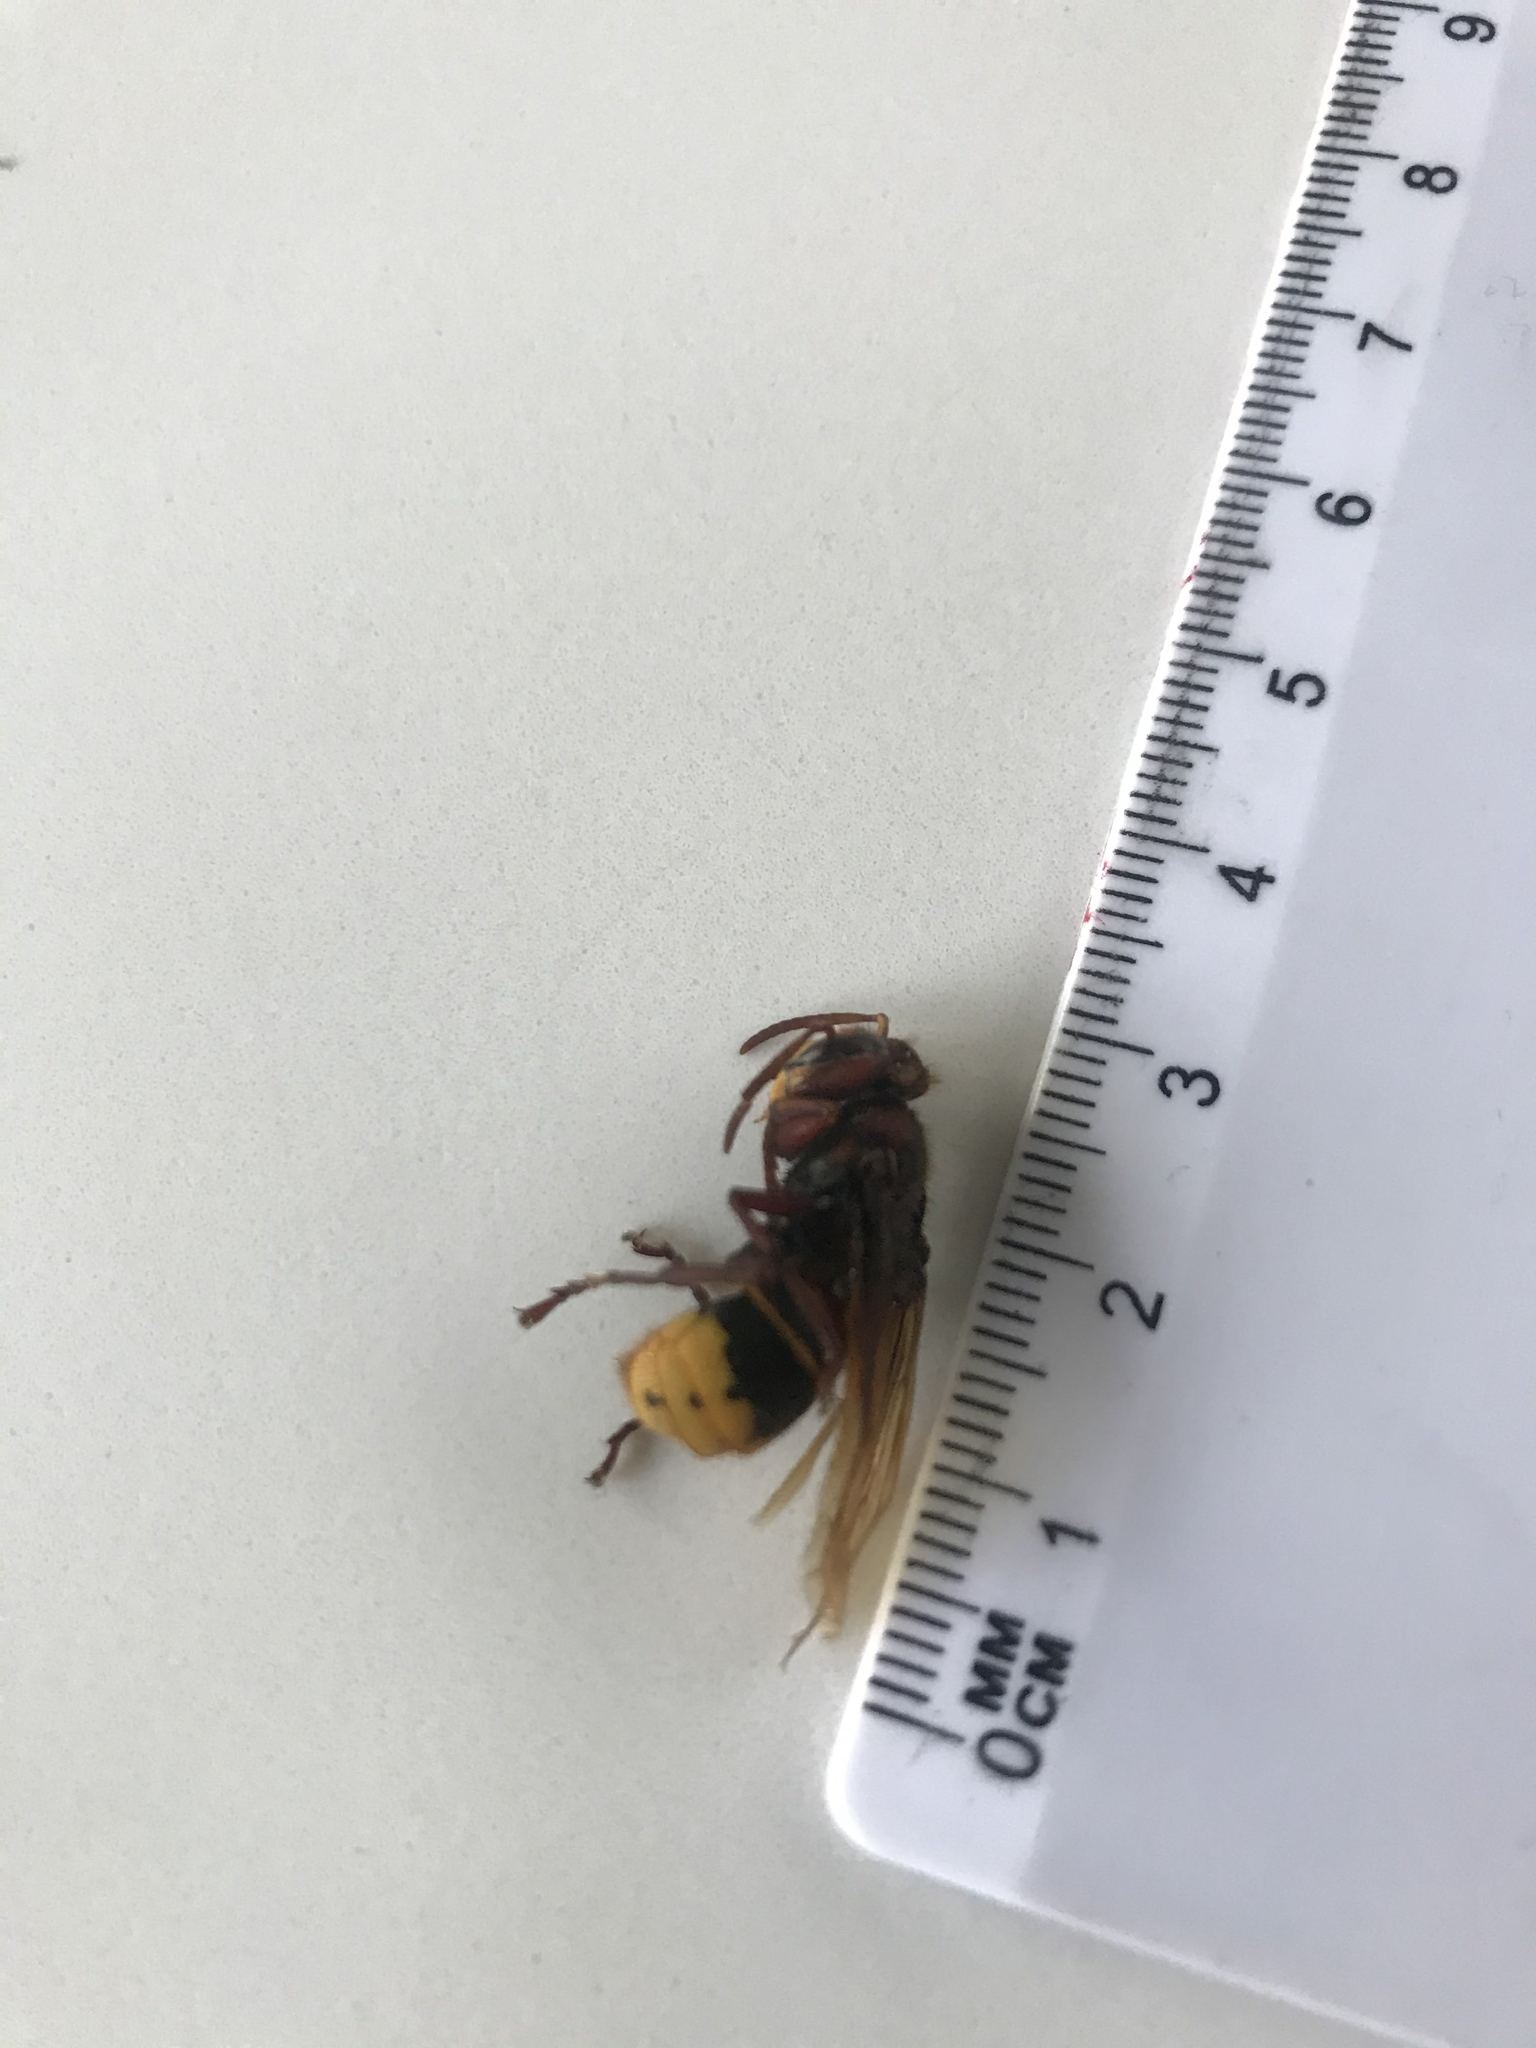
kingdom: Animalia
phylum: Arthropoda
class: Insecta
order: Hymenoptera
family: Vespidae
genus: Vespa
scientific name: Vespa crabro
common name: Hornet
